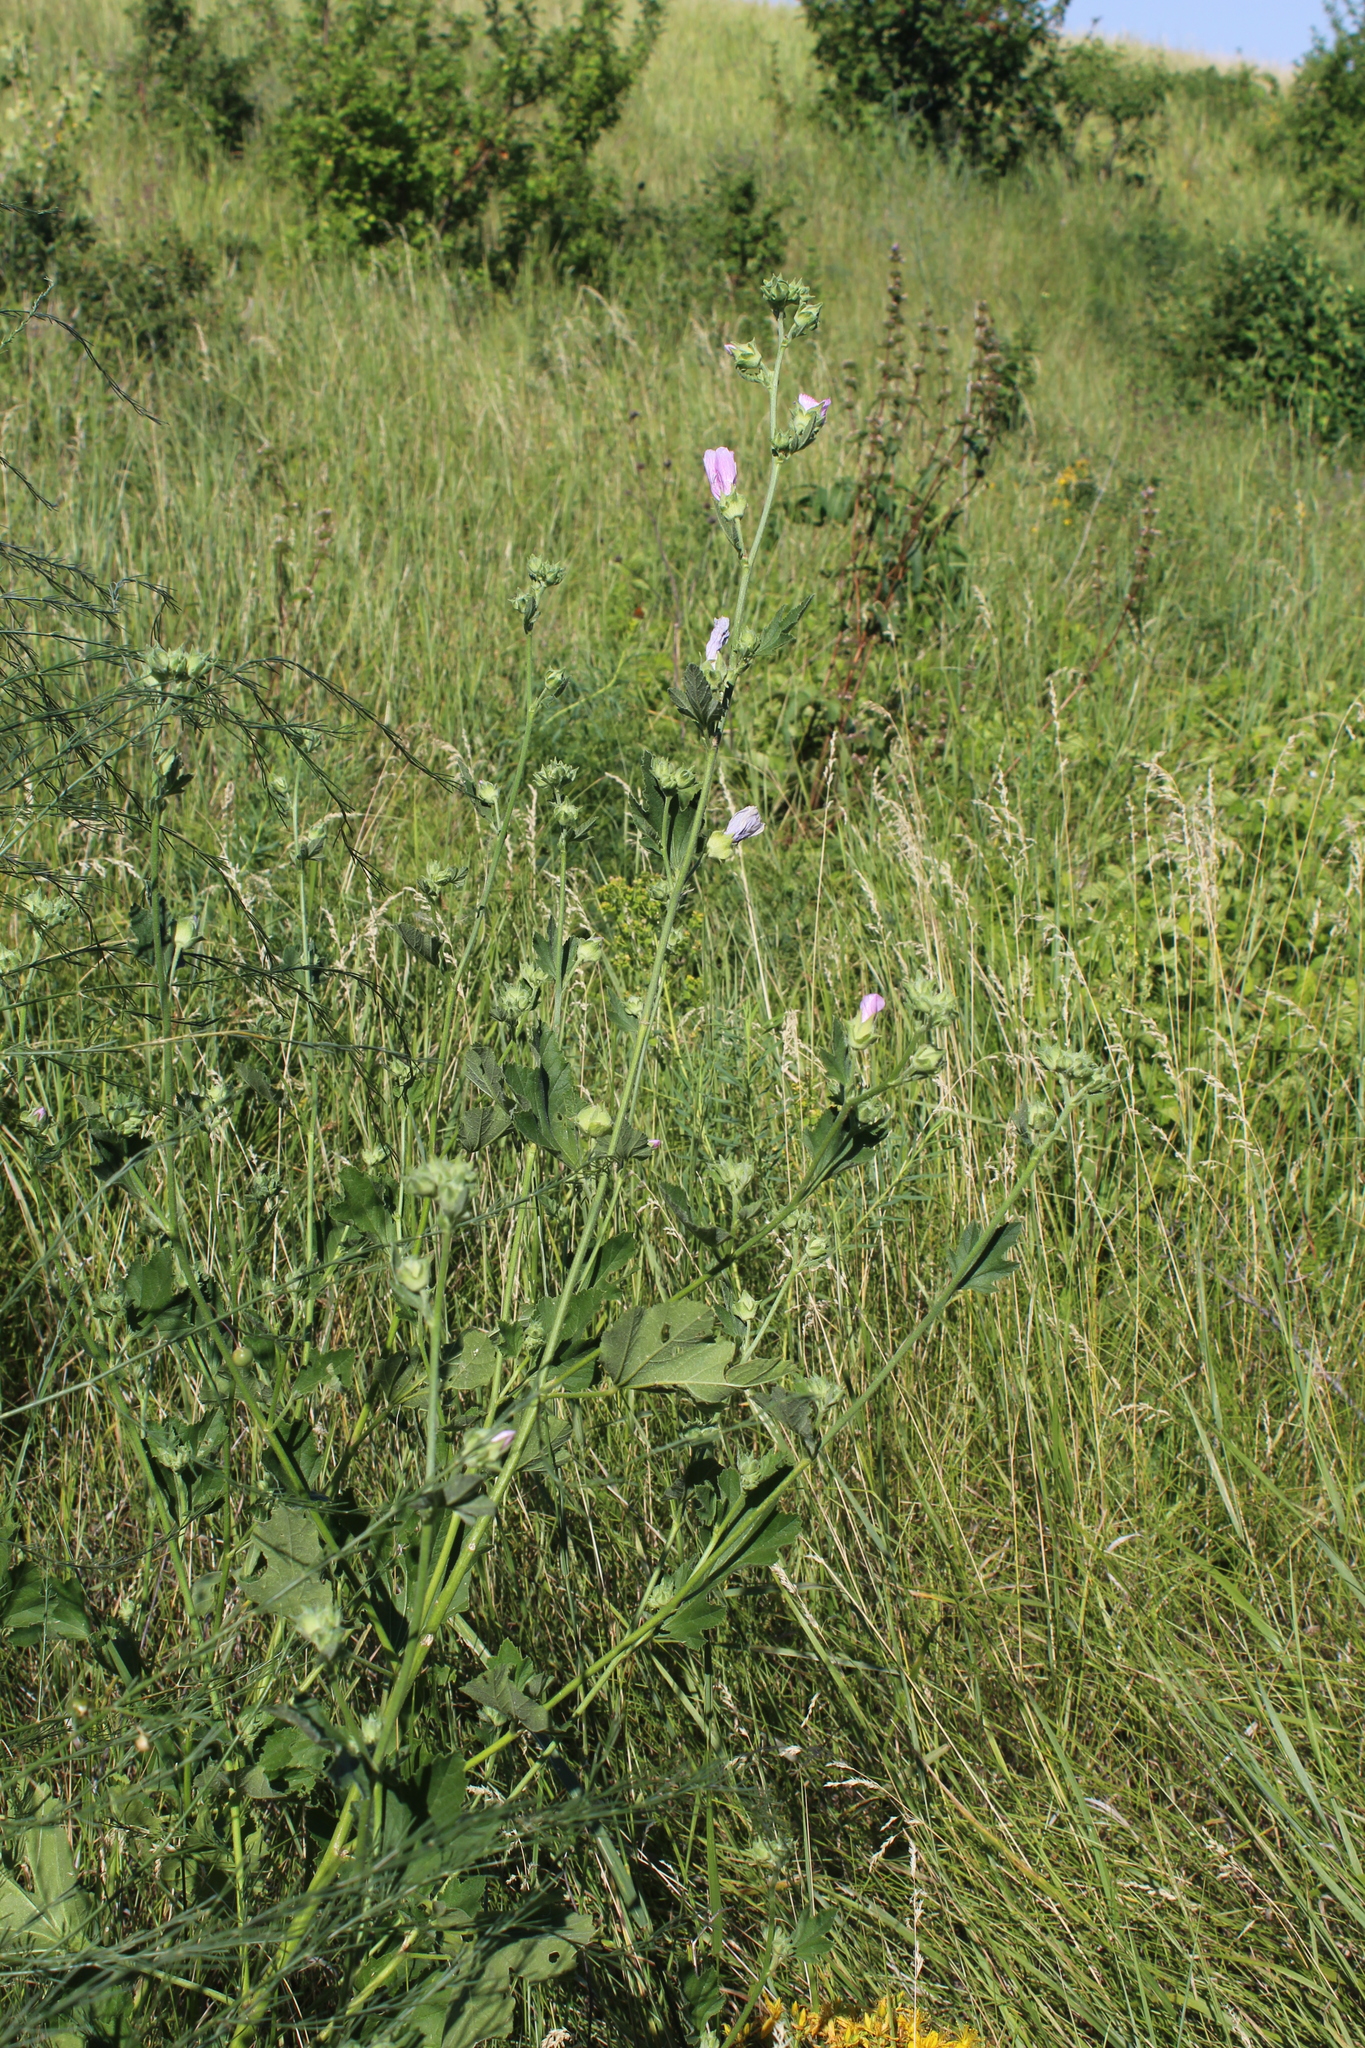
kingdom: Plantae
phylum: Tracheophyta
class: Magnoliopsida
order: Malvales
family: Malvaceae
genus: Malva
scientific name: Malva thuringiaca
